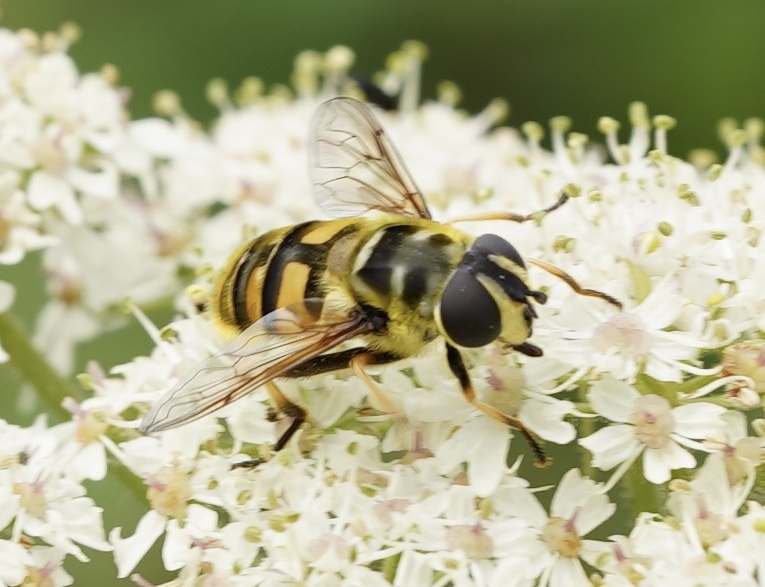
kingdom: Animalia
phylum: Arthropoda
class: Insecta
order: Diptera
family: Syrphidae
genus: Myathropa
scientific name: Myathropa florea
